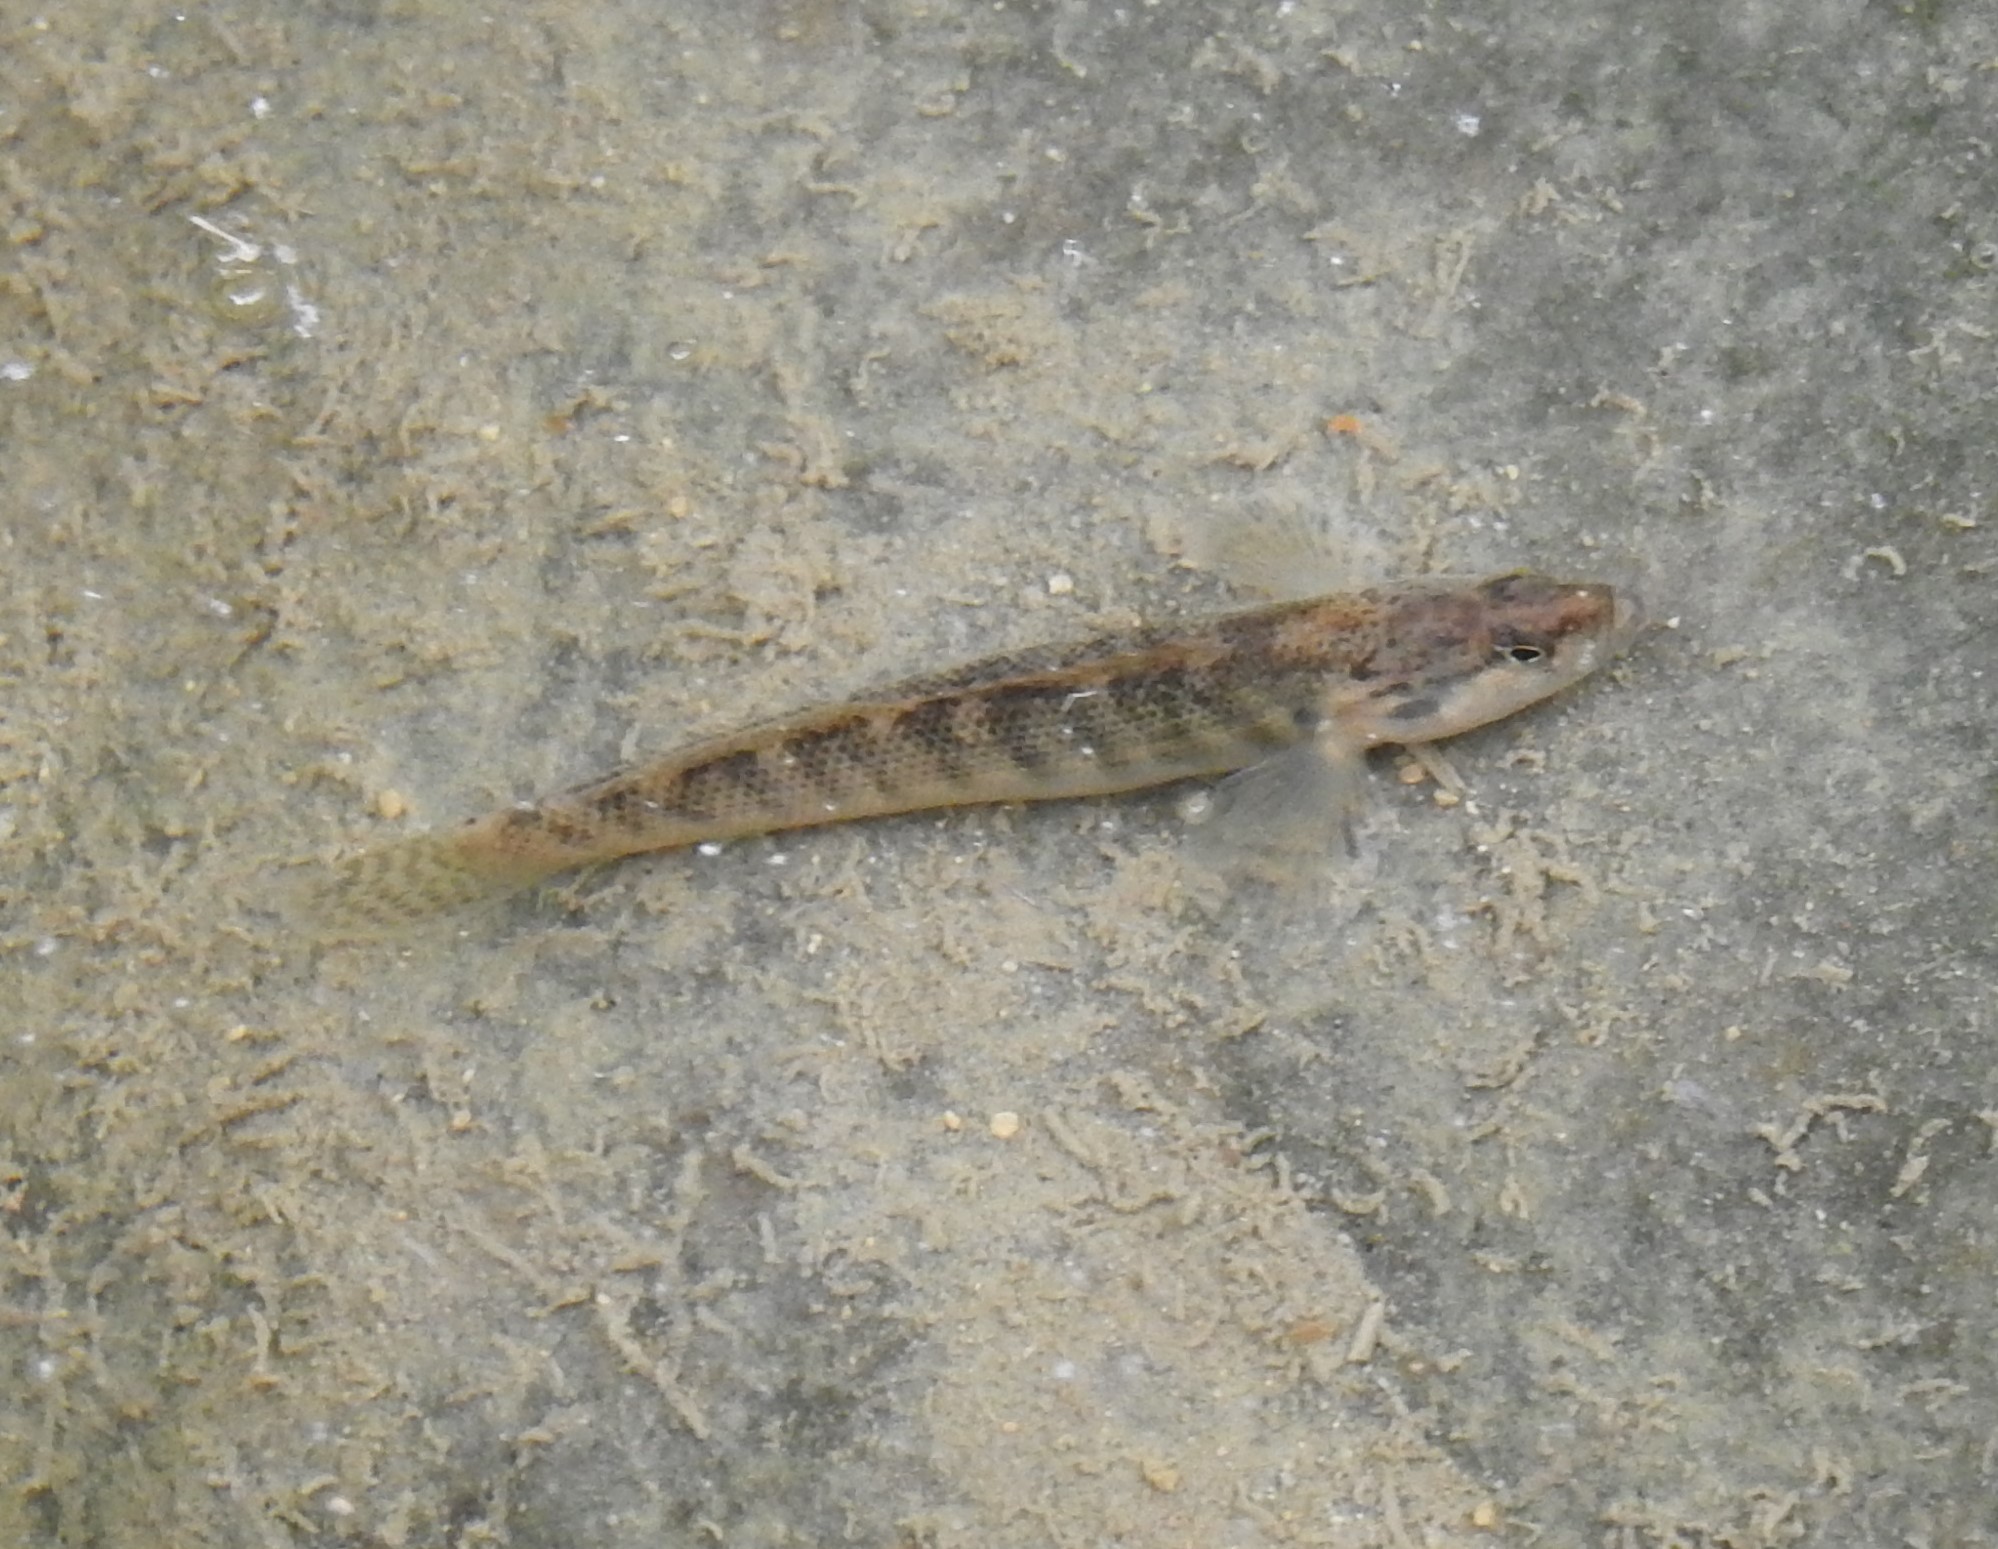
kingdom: Animalia
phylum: Chordata
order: Perciformes
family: Percidae
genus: Etheostoma
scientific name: Etheostoma flabellare
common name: Fantail darter
